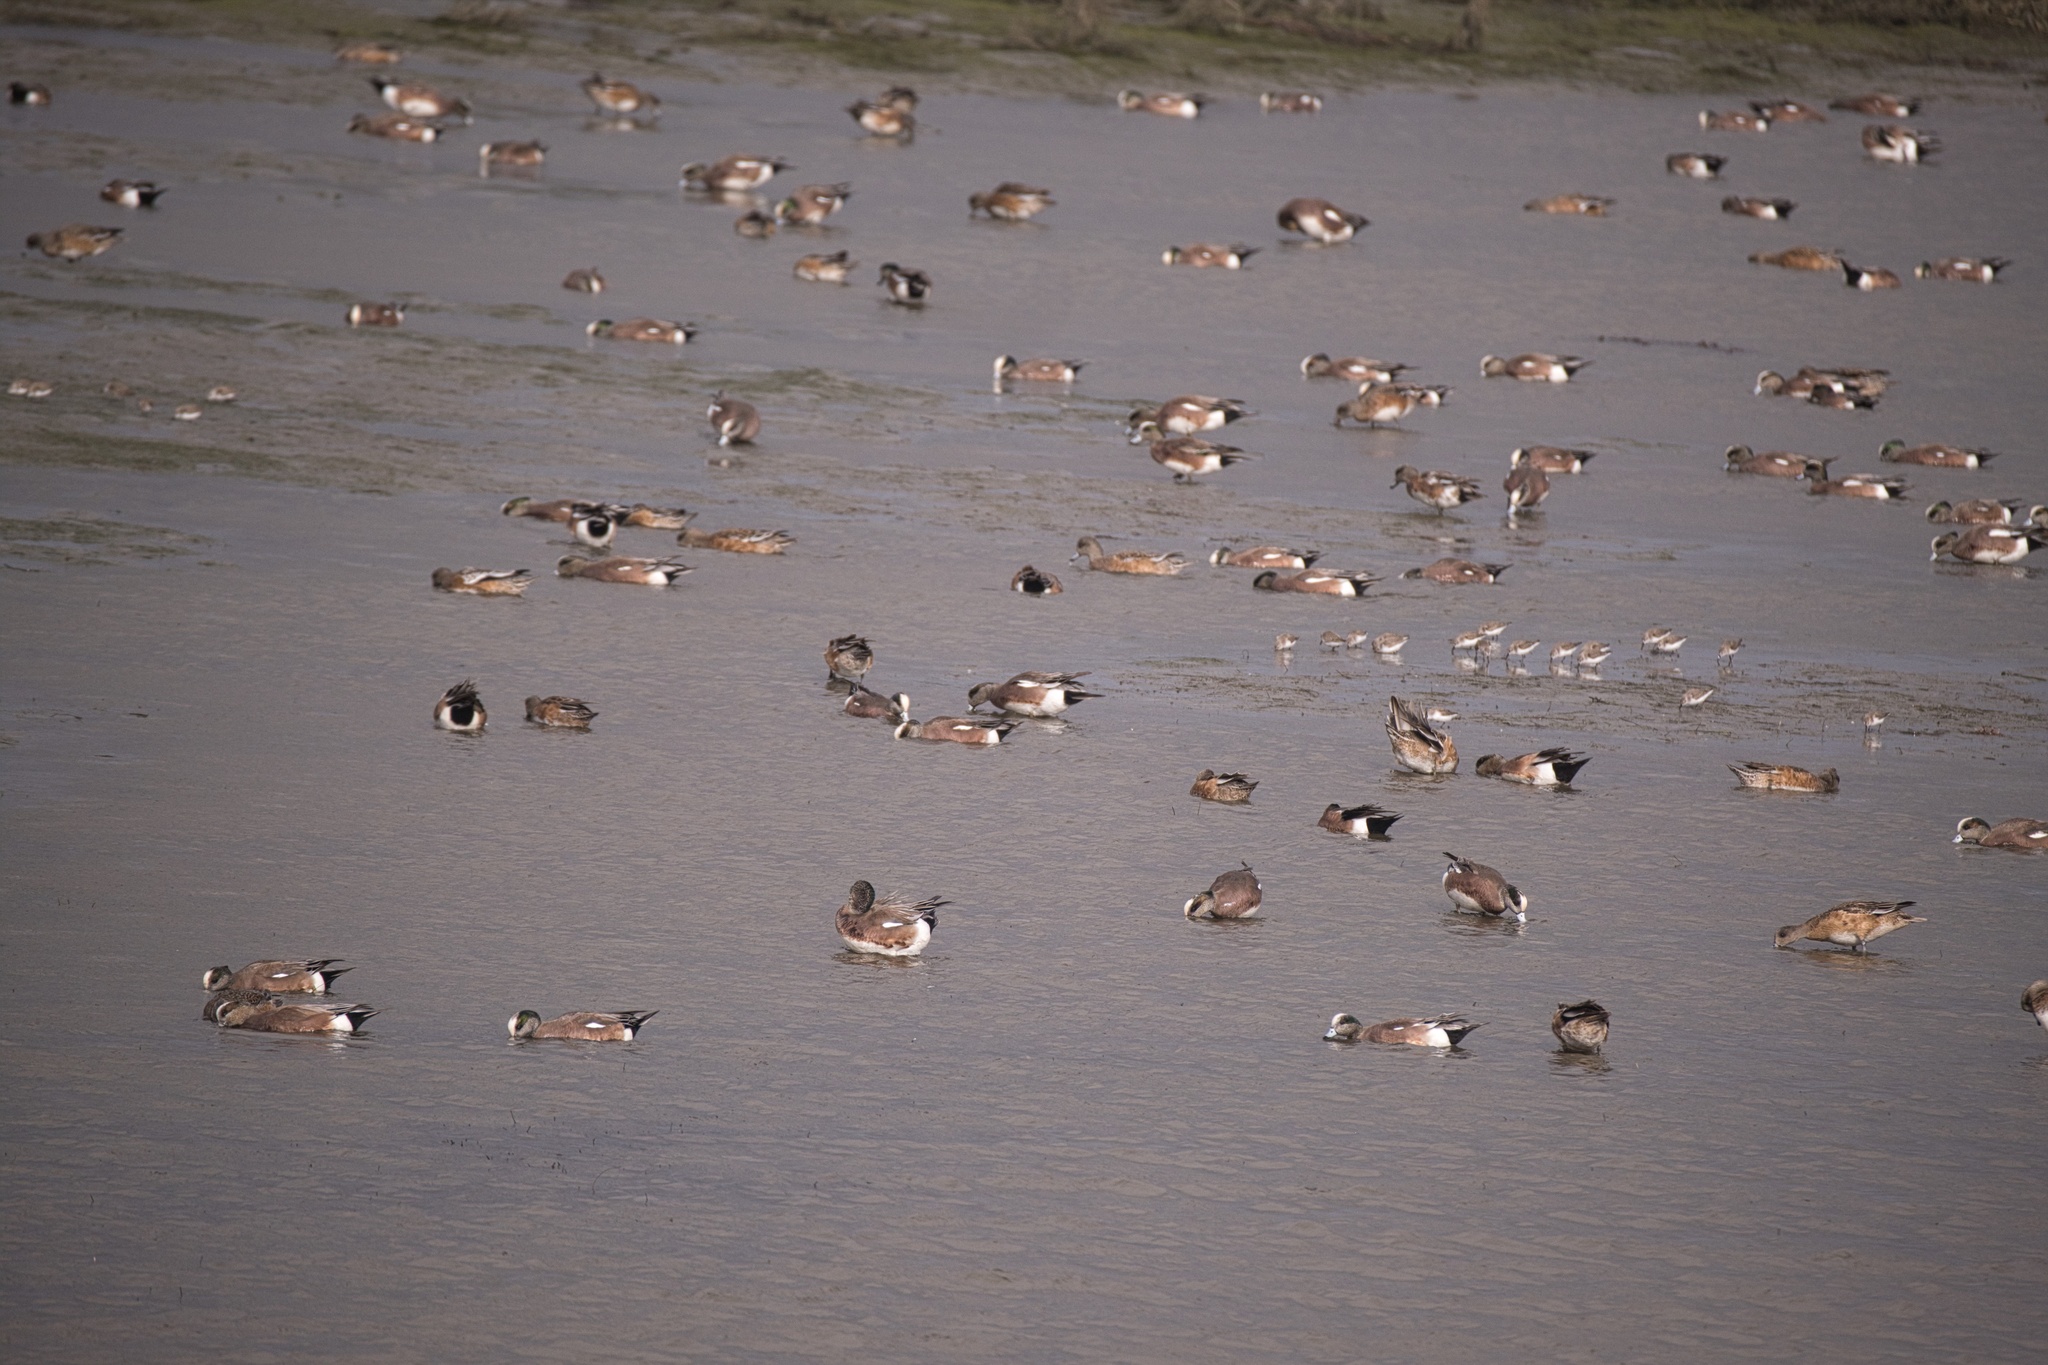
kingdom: Animalia
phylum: Chordata
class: Aves
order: Anseriformes
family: Anatidae
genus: Mareca
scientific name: Mareca americana
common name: American wigeon
